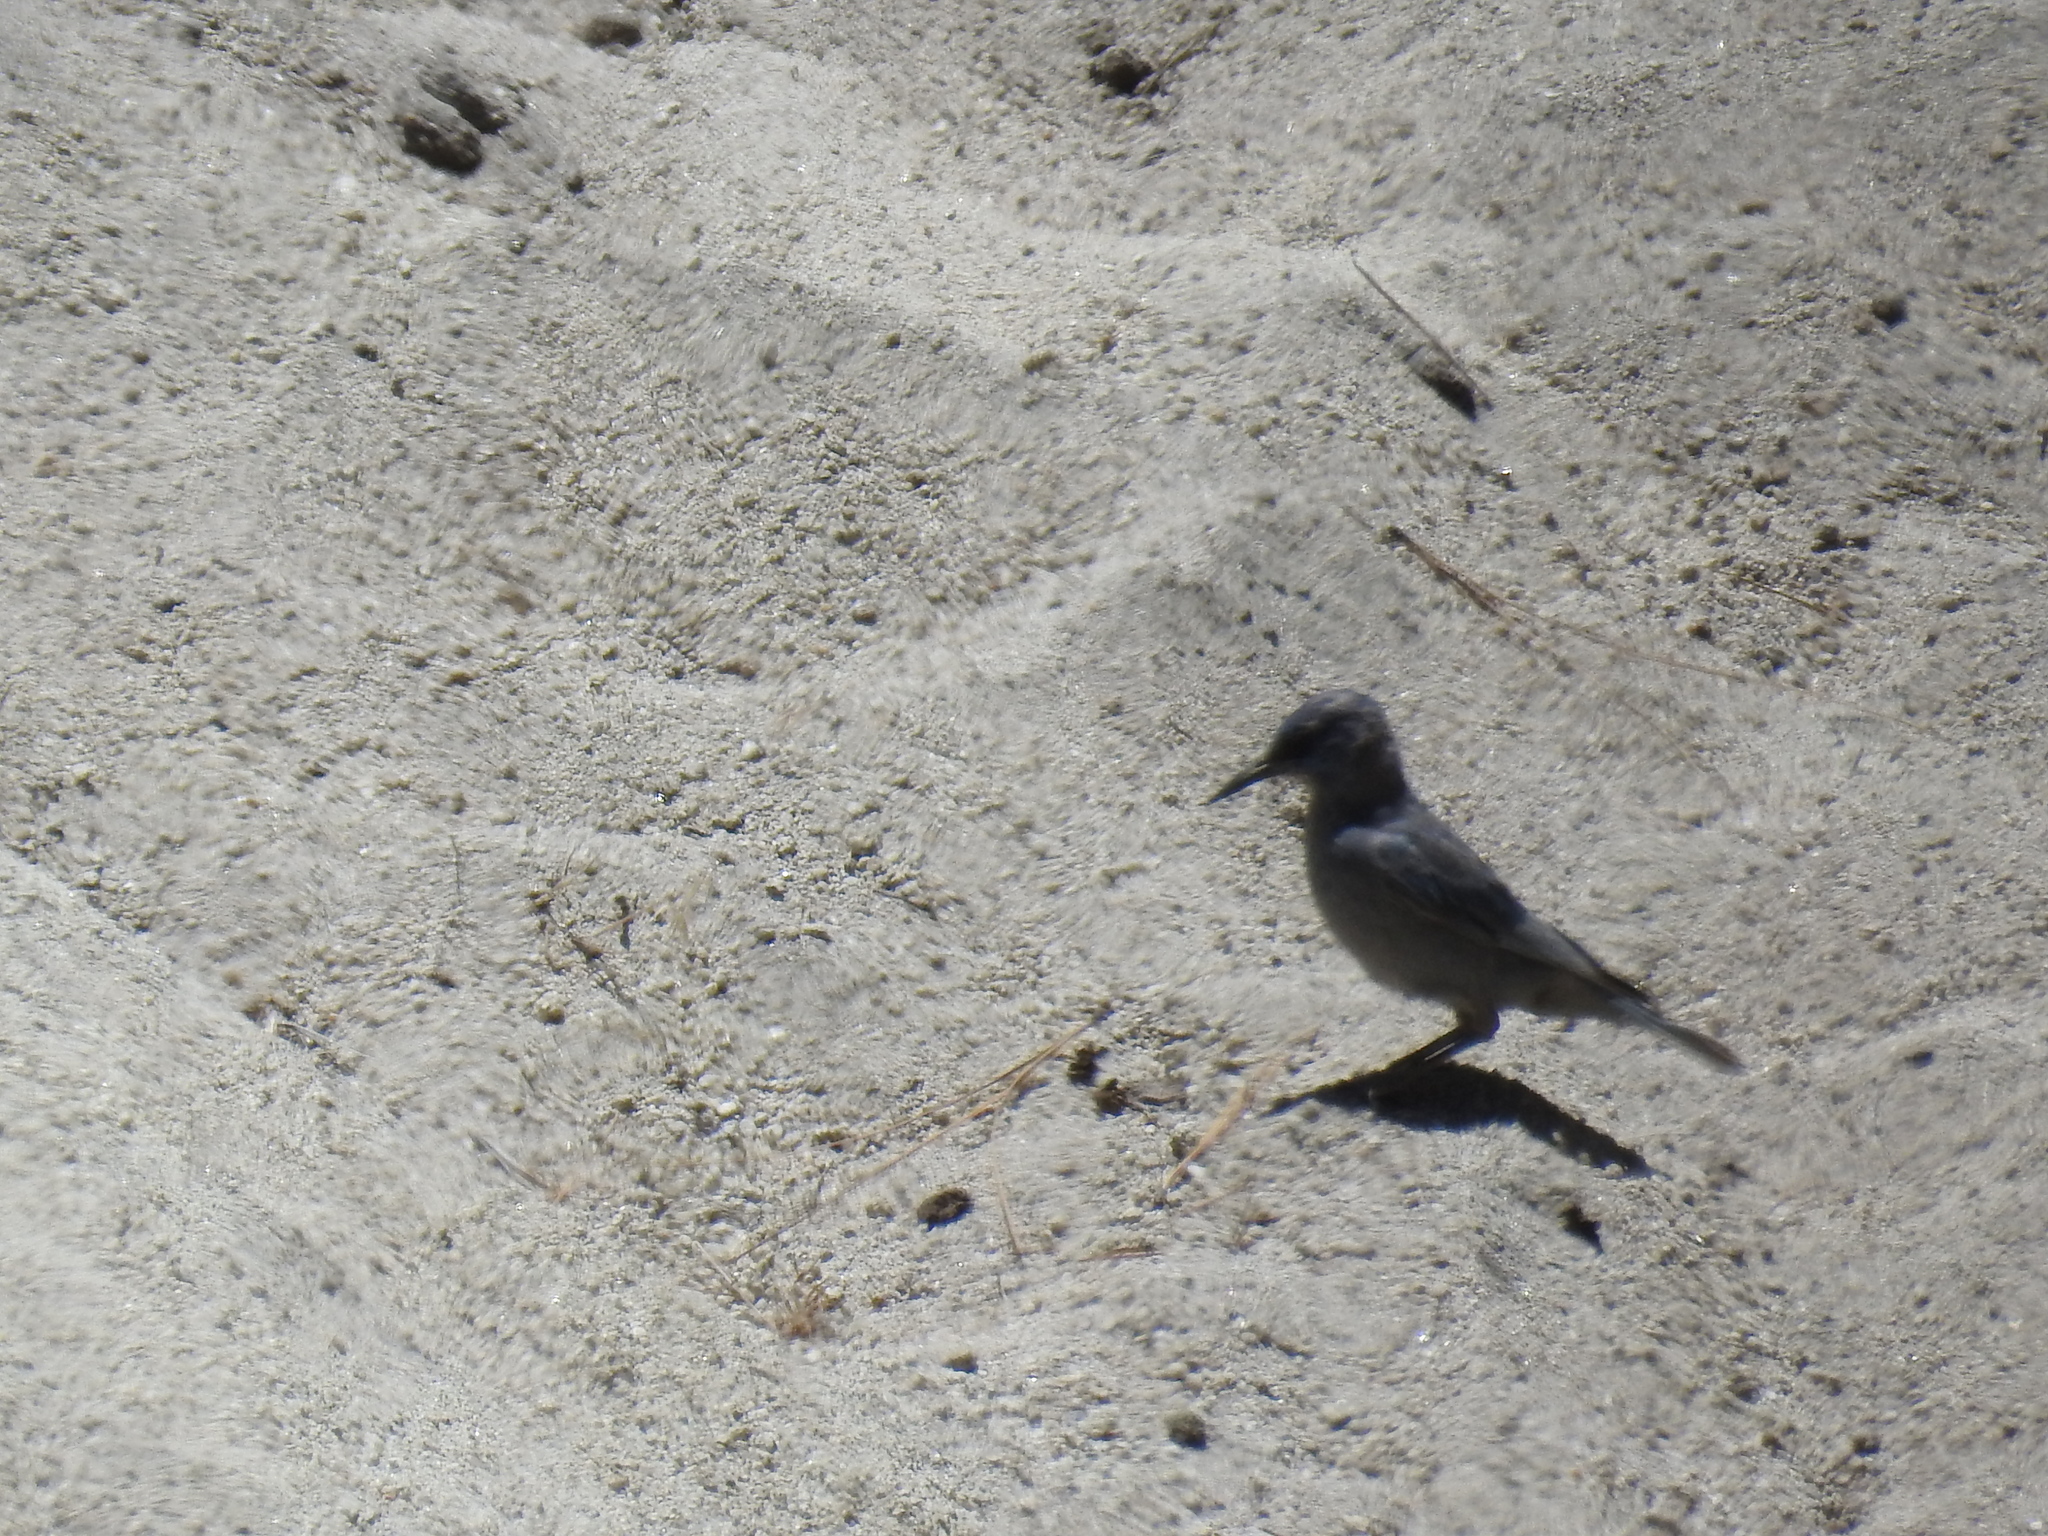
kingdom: Animalia
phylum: Chordata
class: Aves
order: Passeriformes
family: Corvidae
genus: Gymnorhinus
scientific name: Gymnorhinus cyanocephalus
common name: Pinyon jay
